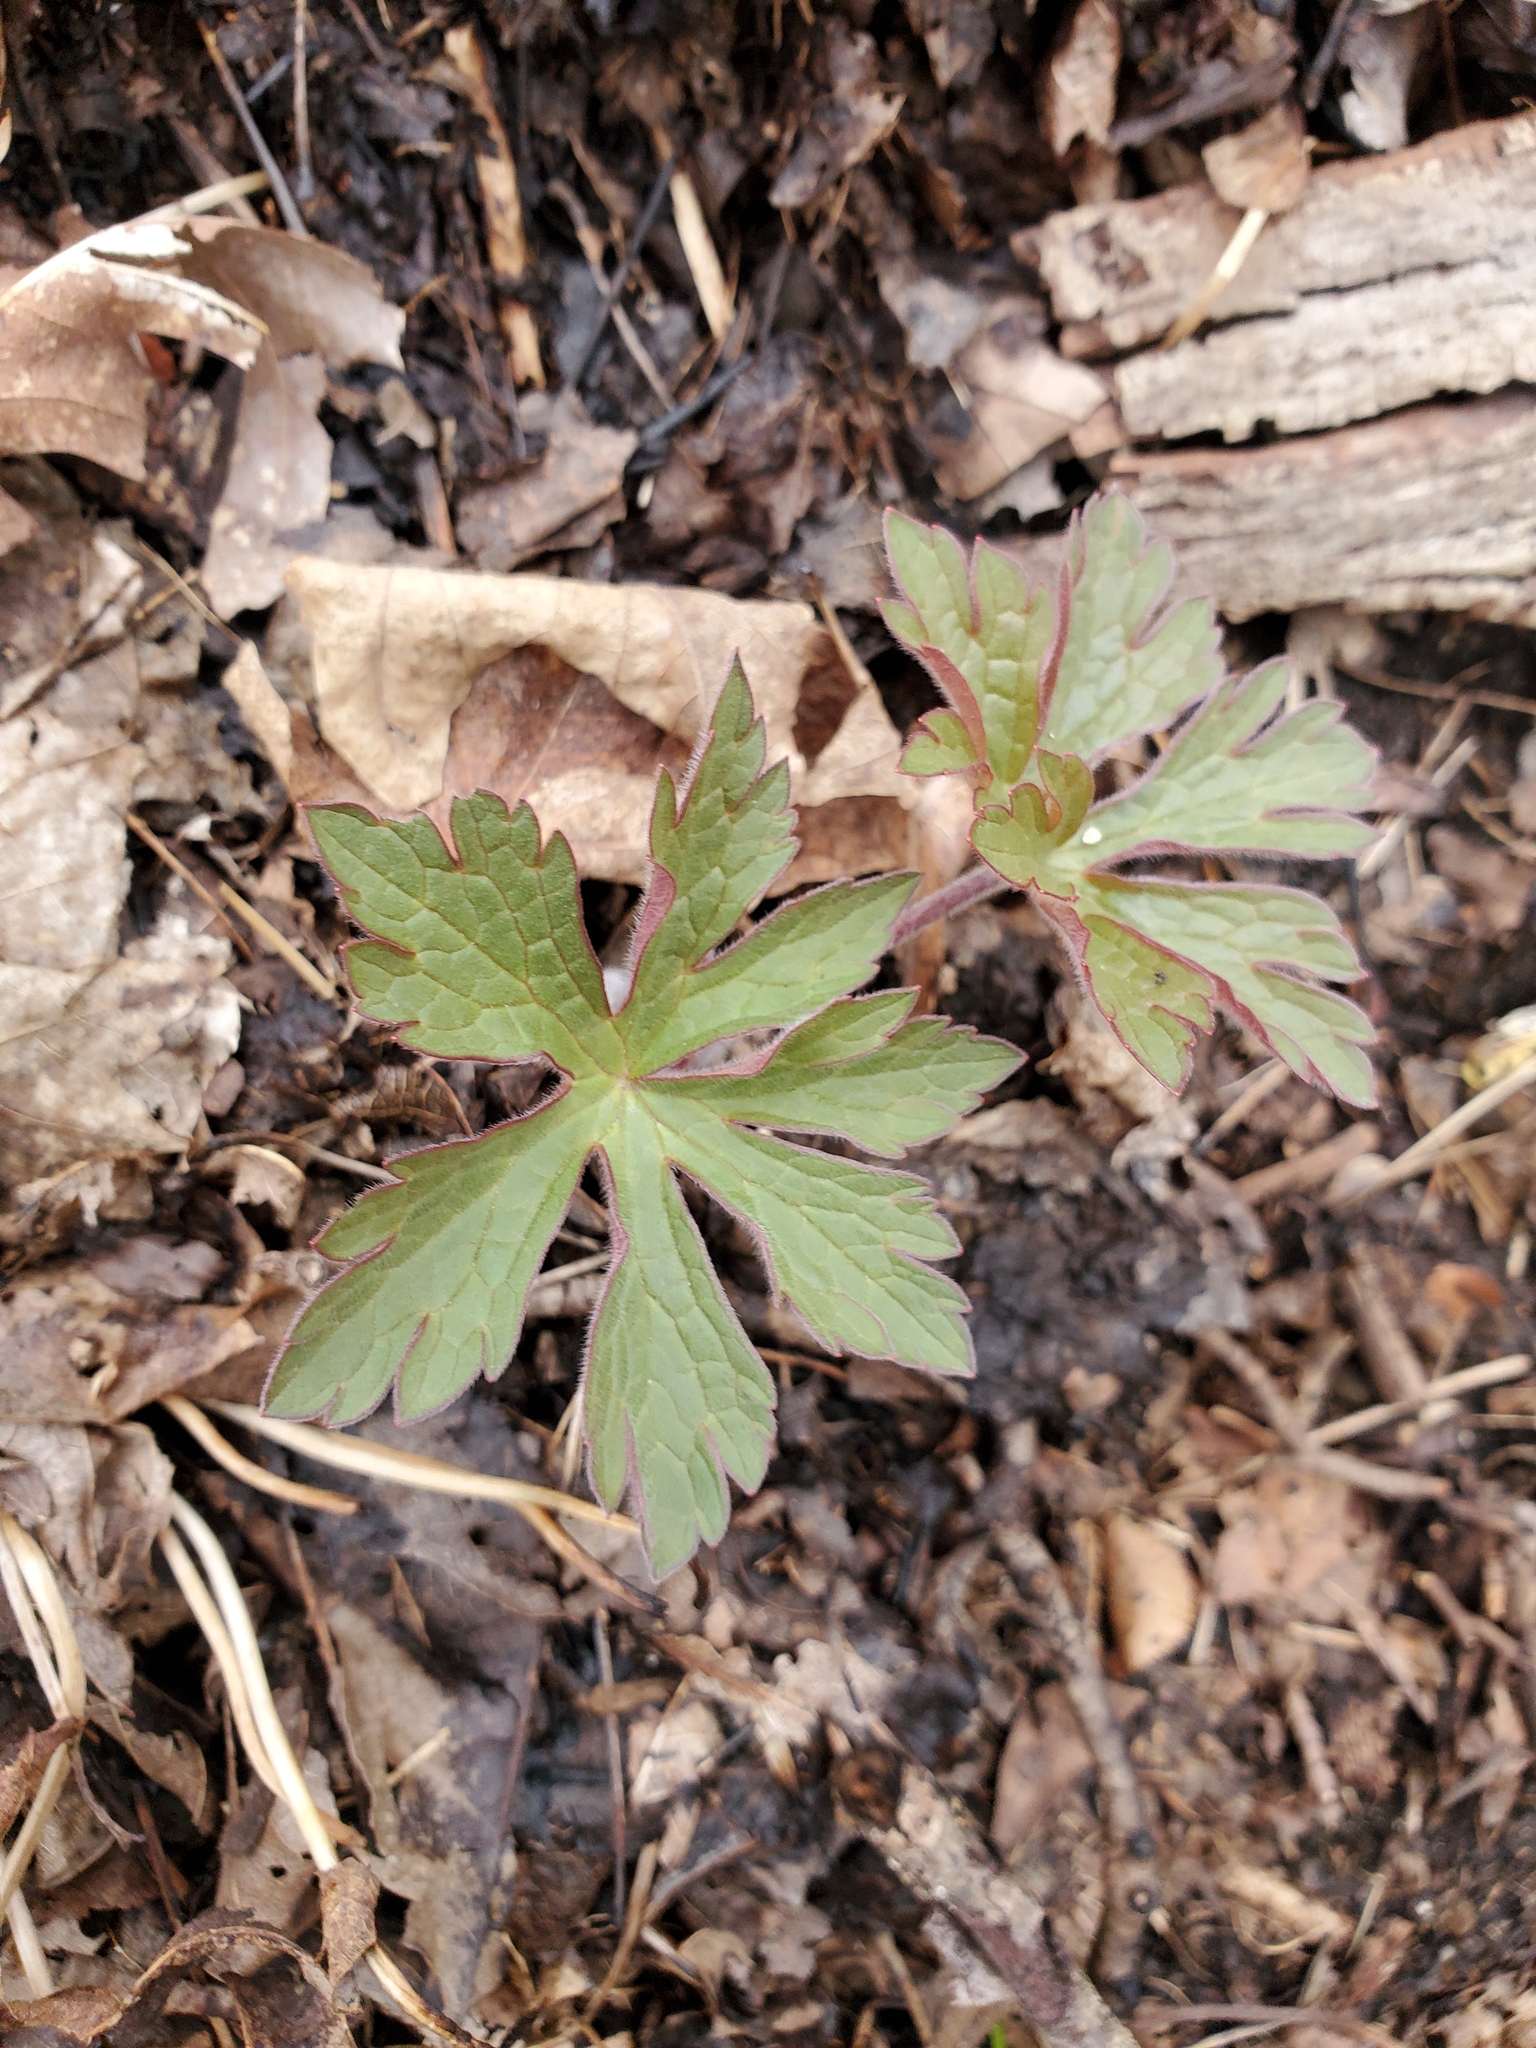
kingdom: Plantae
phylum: Tracheophyta
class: Magnoliopsida
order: Geraniales
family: Geraniaceae
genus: Geranium
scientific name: Geranium maculatum
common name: Spotted geranium
